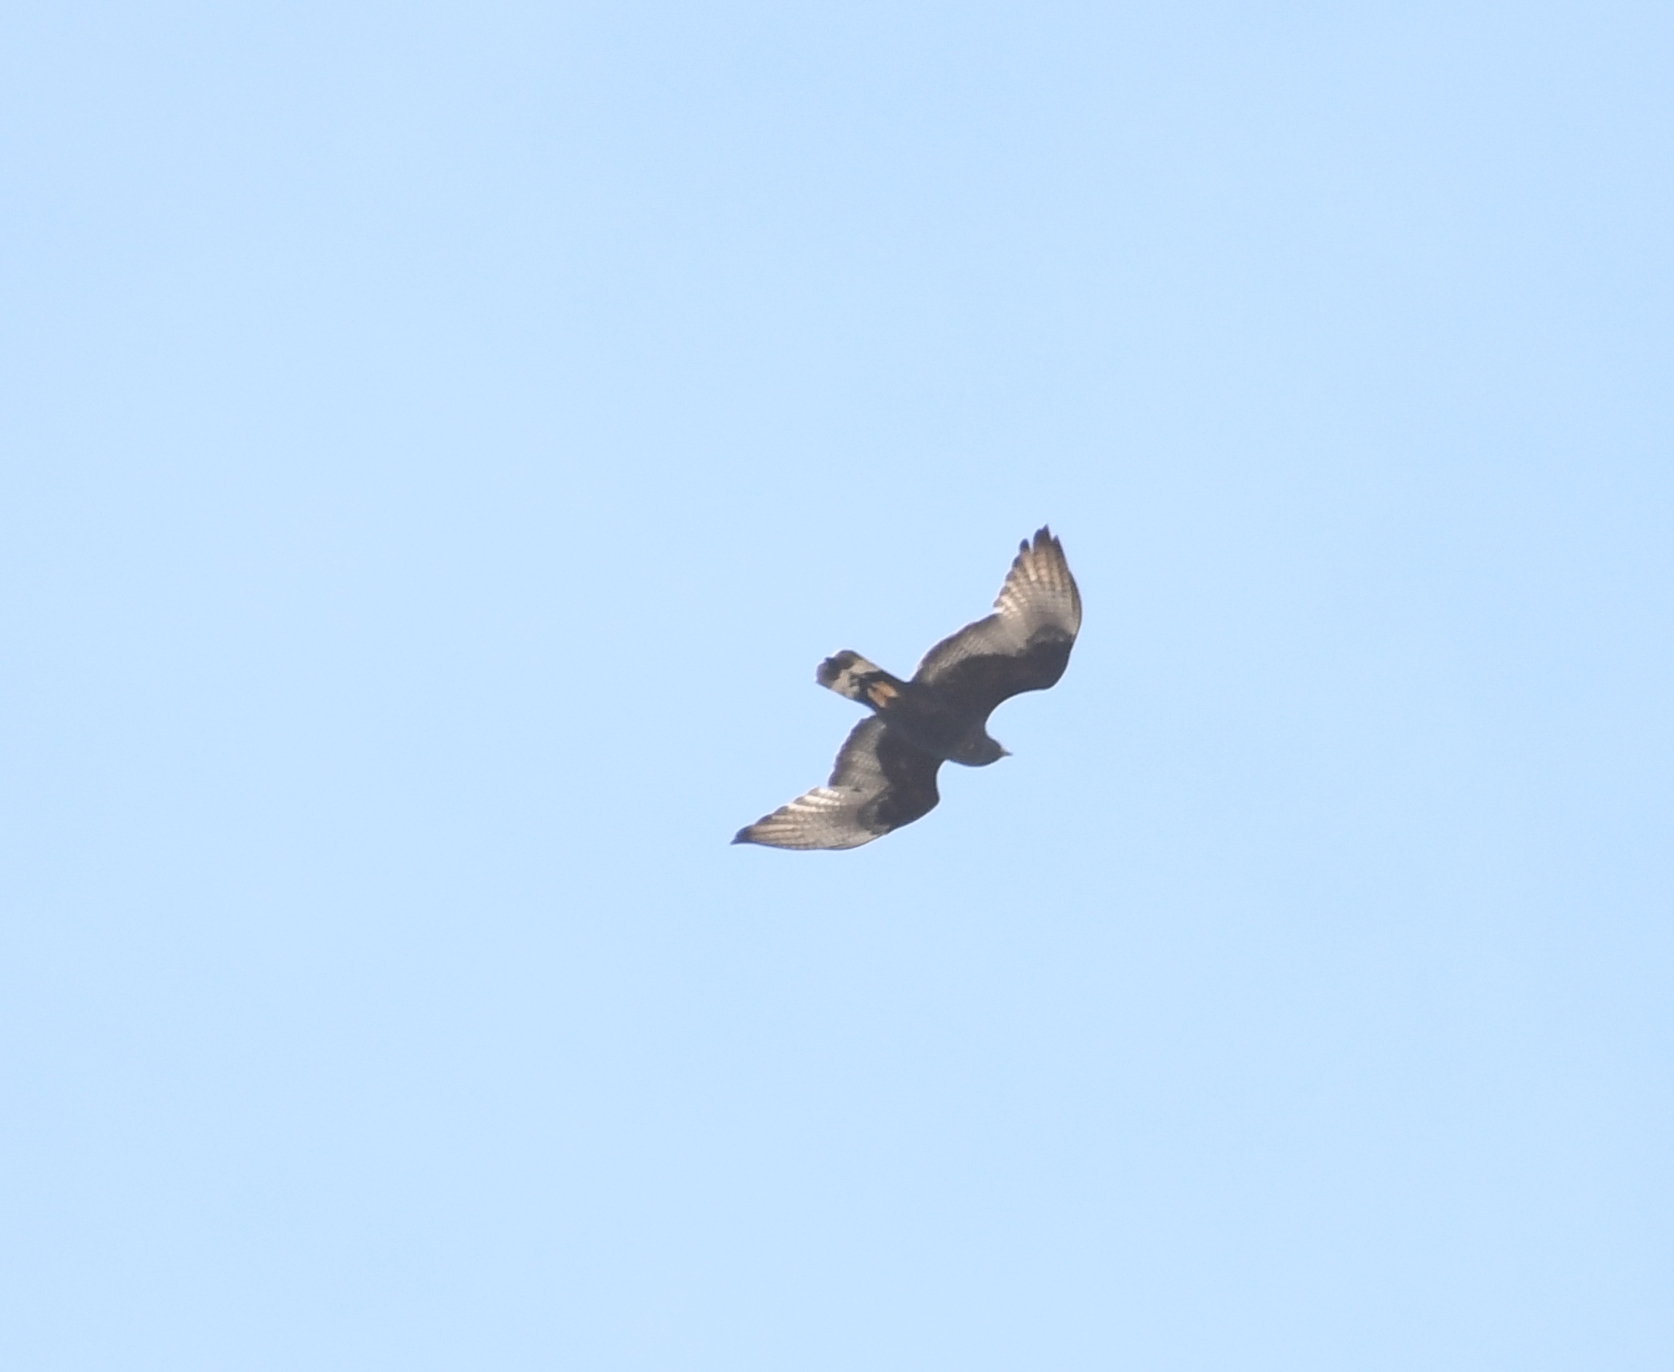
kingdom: Animalia
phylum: Chordata
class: Aves
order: Accipitriformes
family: Accipitridae
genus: Buteo
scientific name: Buteo albonotatus
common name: Zone-tailed hawk
